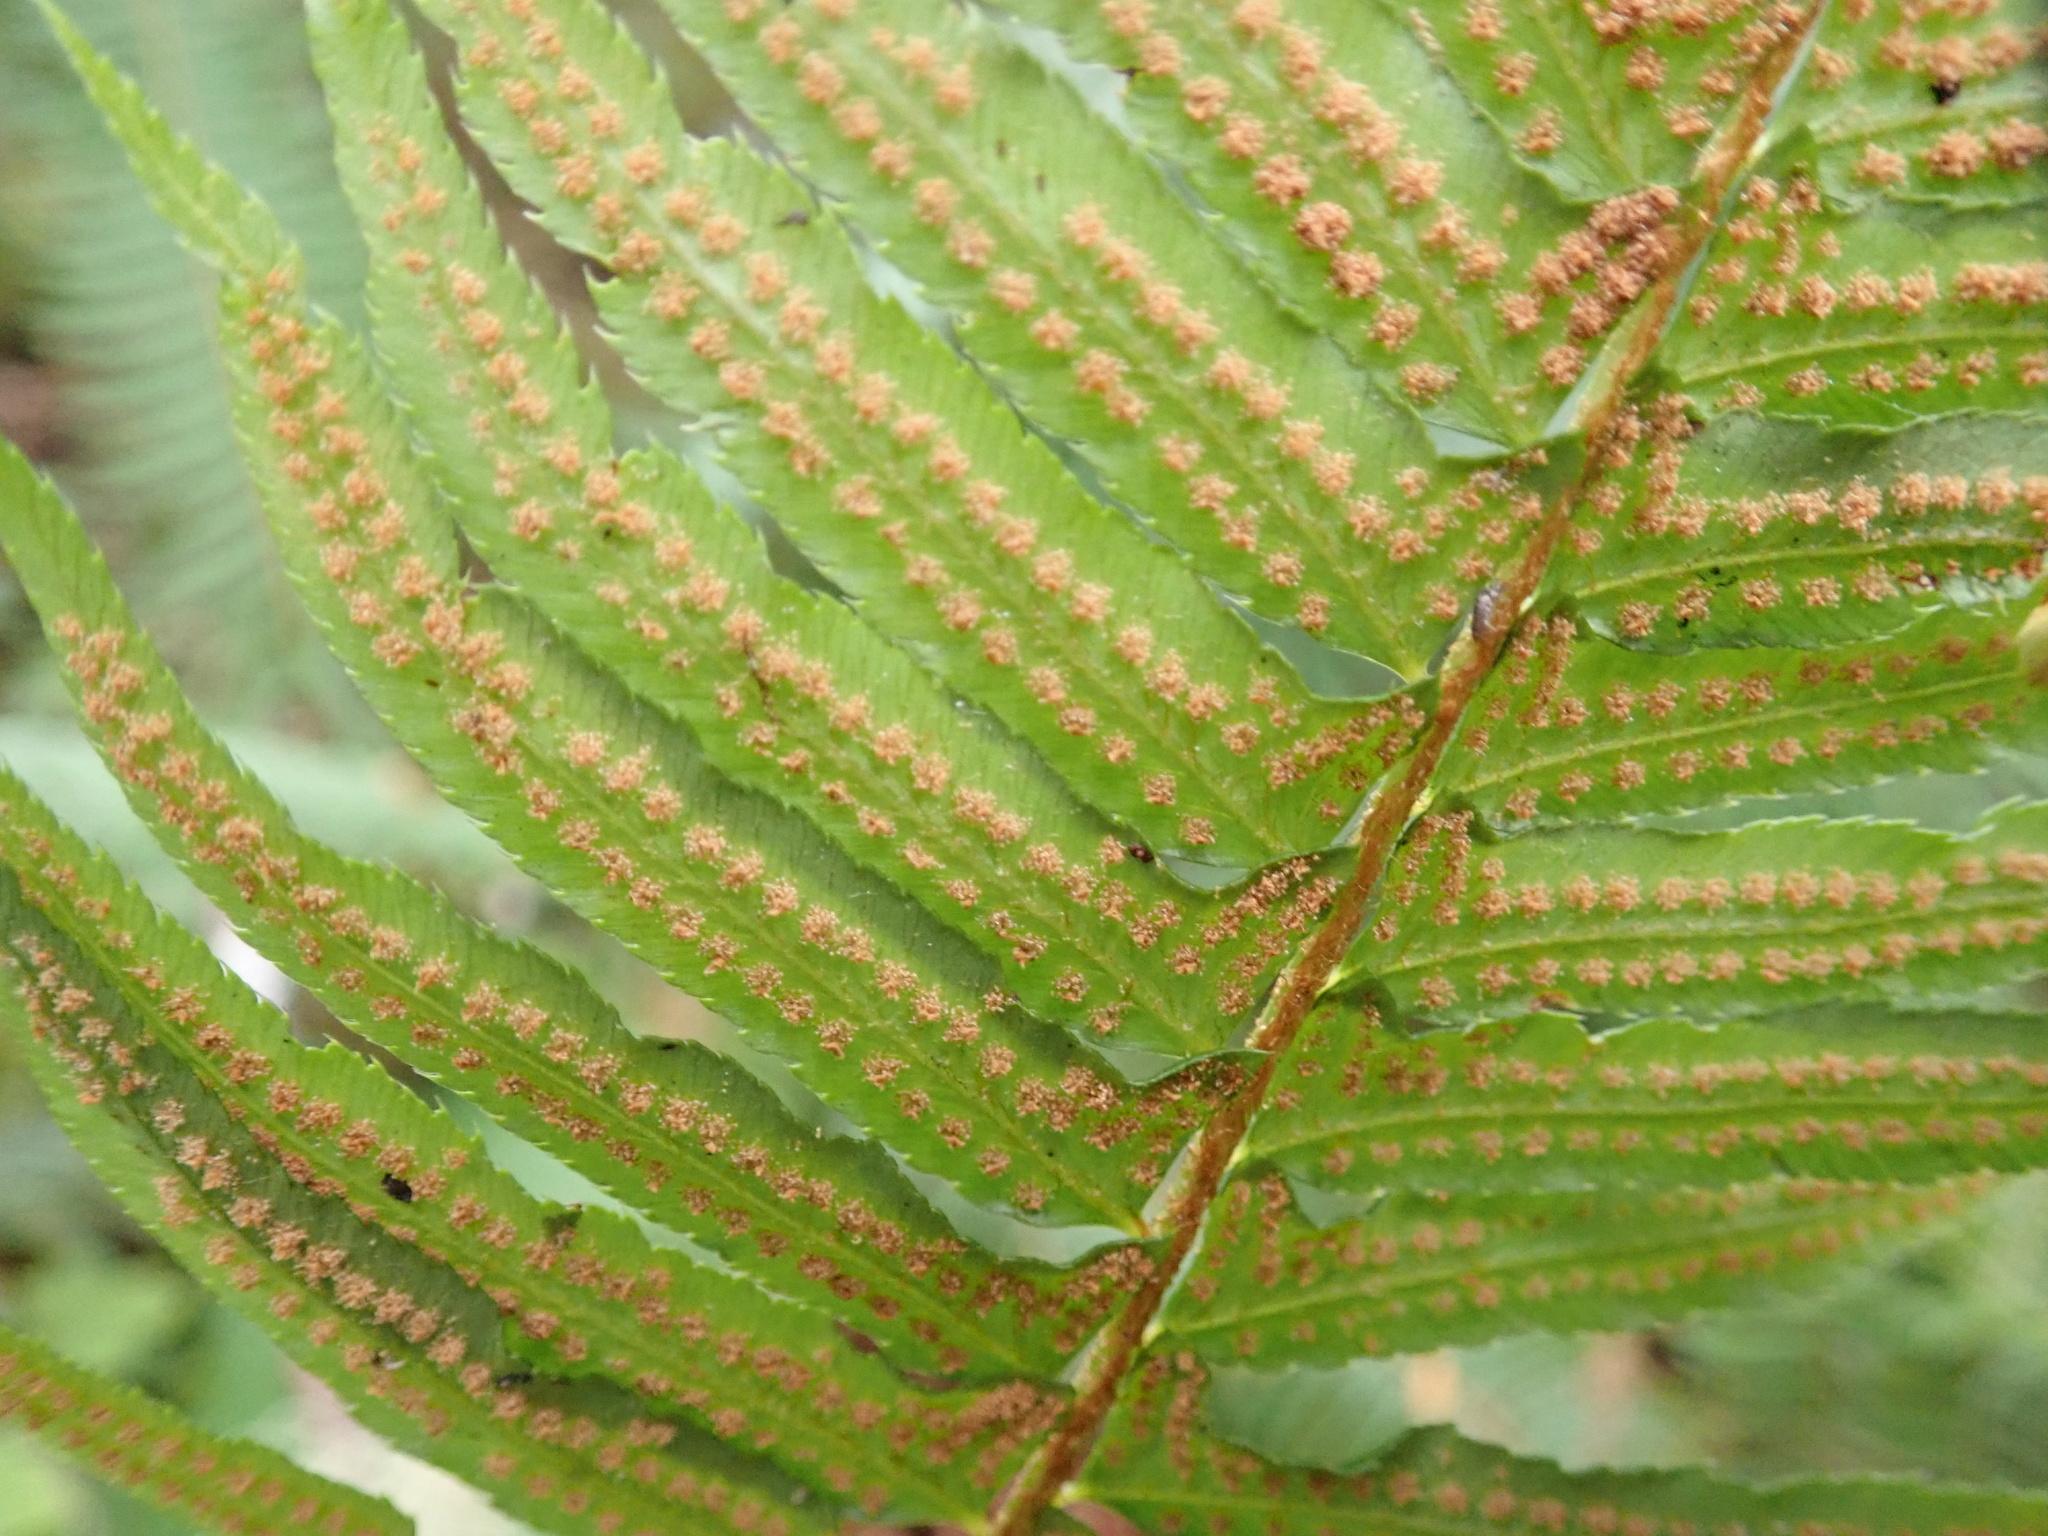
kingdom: Plantae
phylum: Tracheophyta
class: Polypodiopsida
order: Polypodiales
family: Dryopteridaceae
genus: Polystichum
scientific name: Polystichum munitum
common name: Western sword-fern
